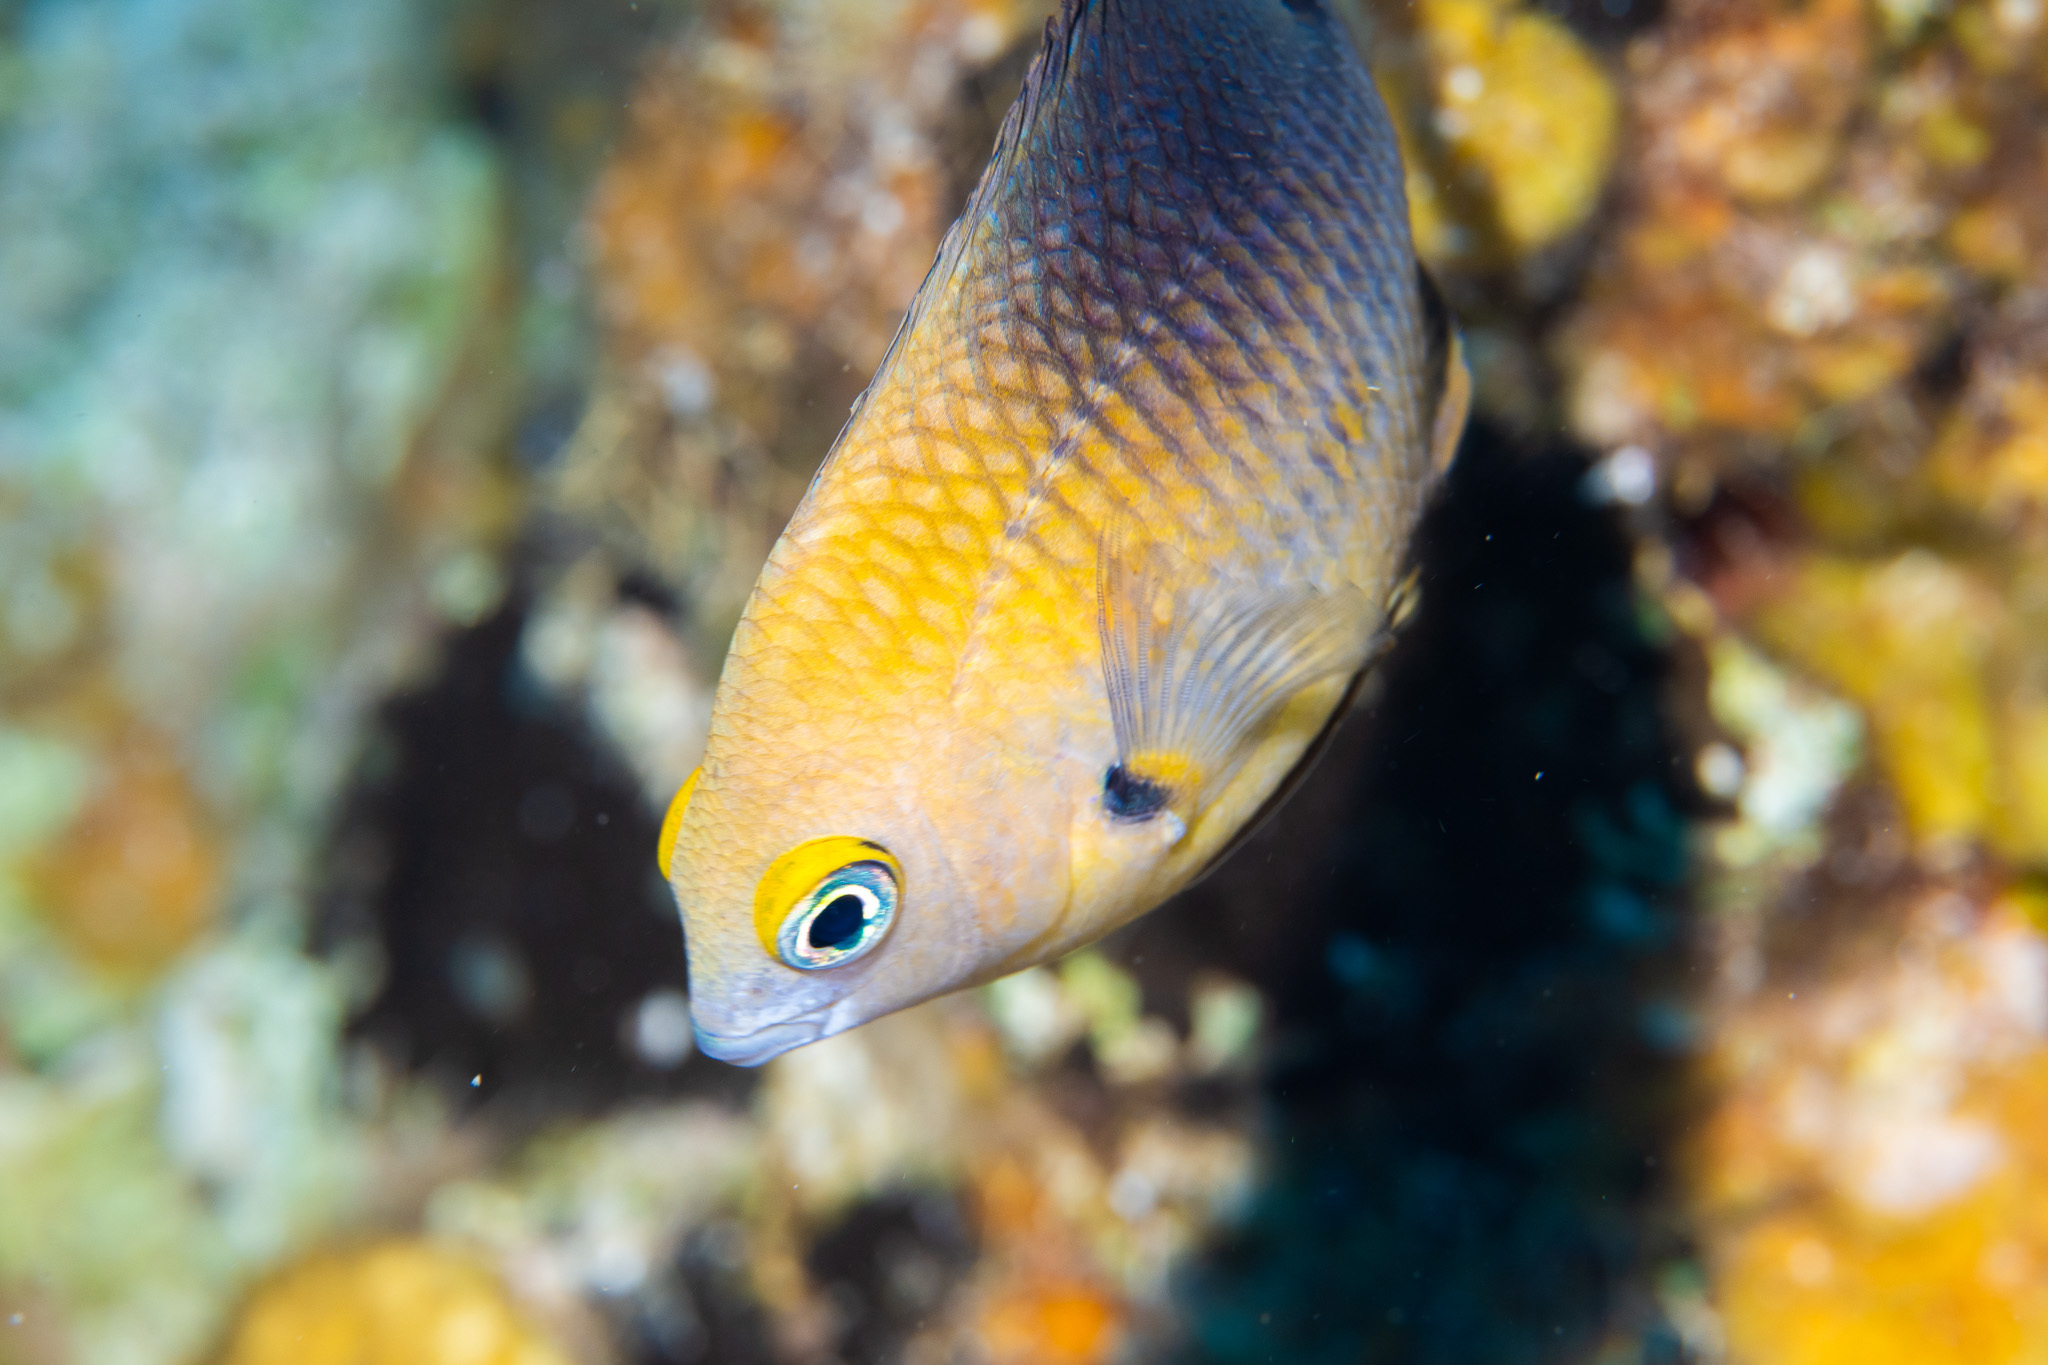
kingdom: Animalia
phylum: Chordata
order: Perciformes
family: Pomacentridae
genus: Stegastes
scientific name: Stegastes planifrons
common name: Threespot damselfish
